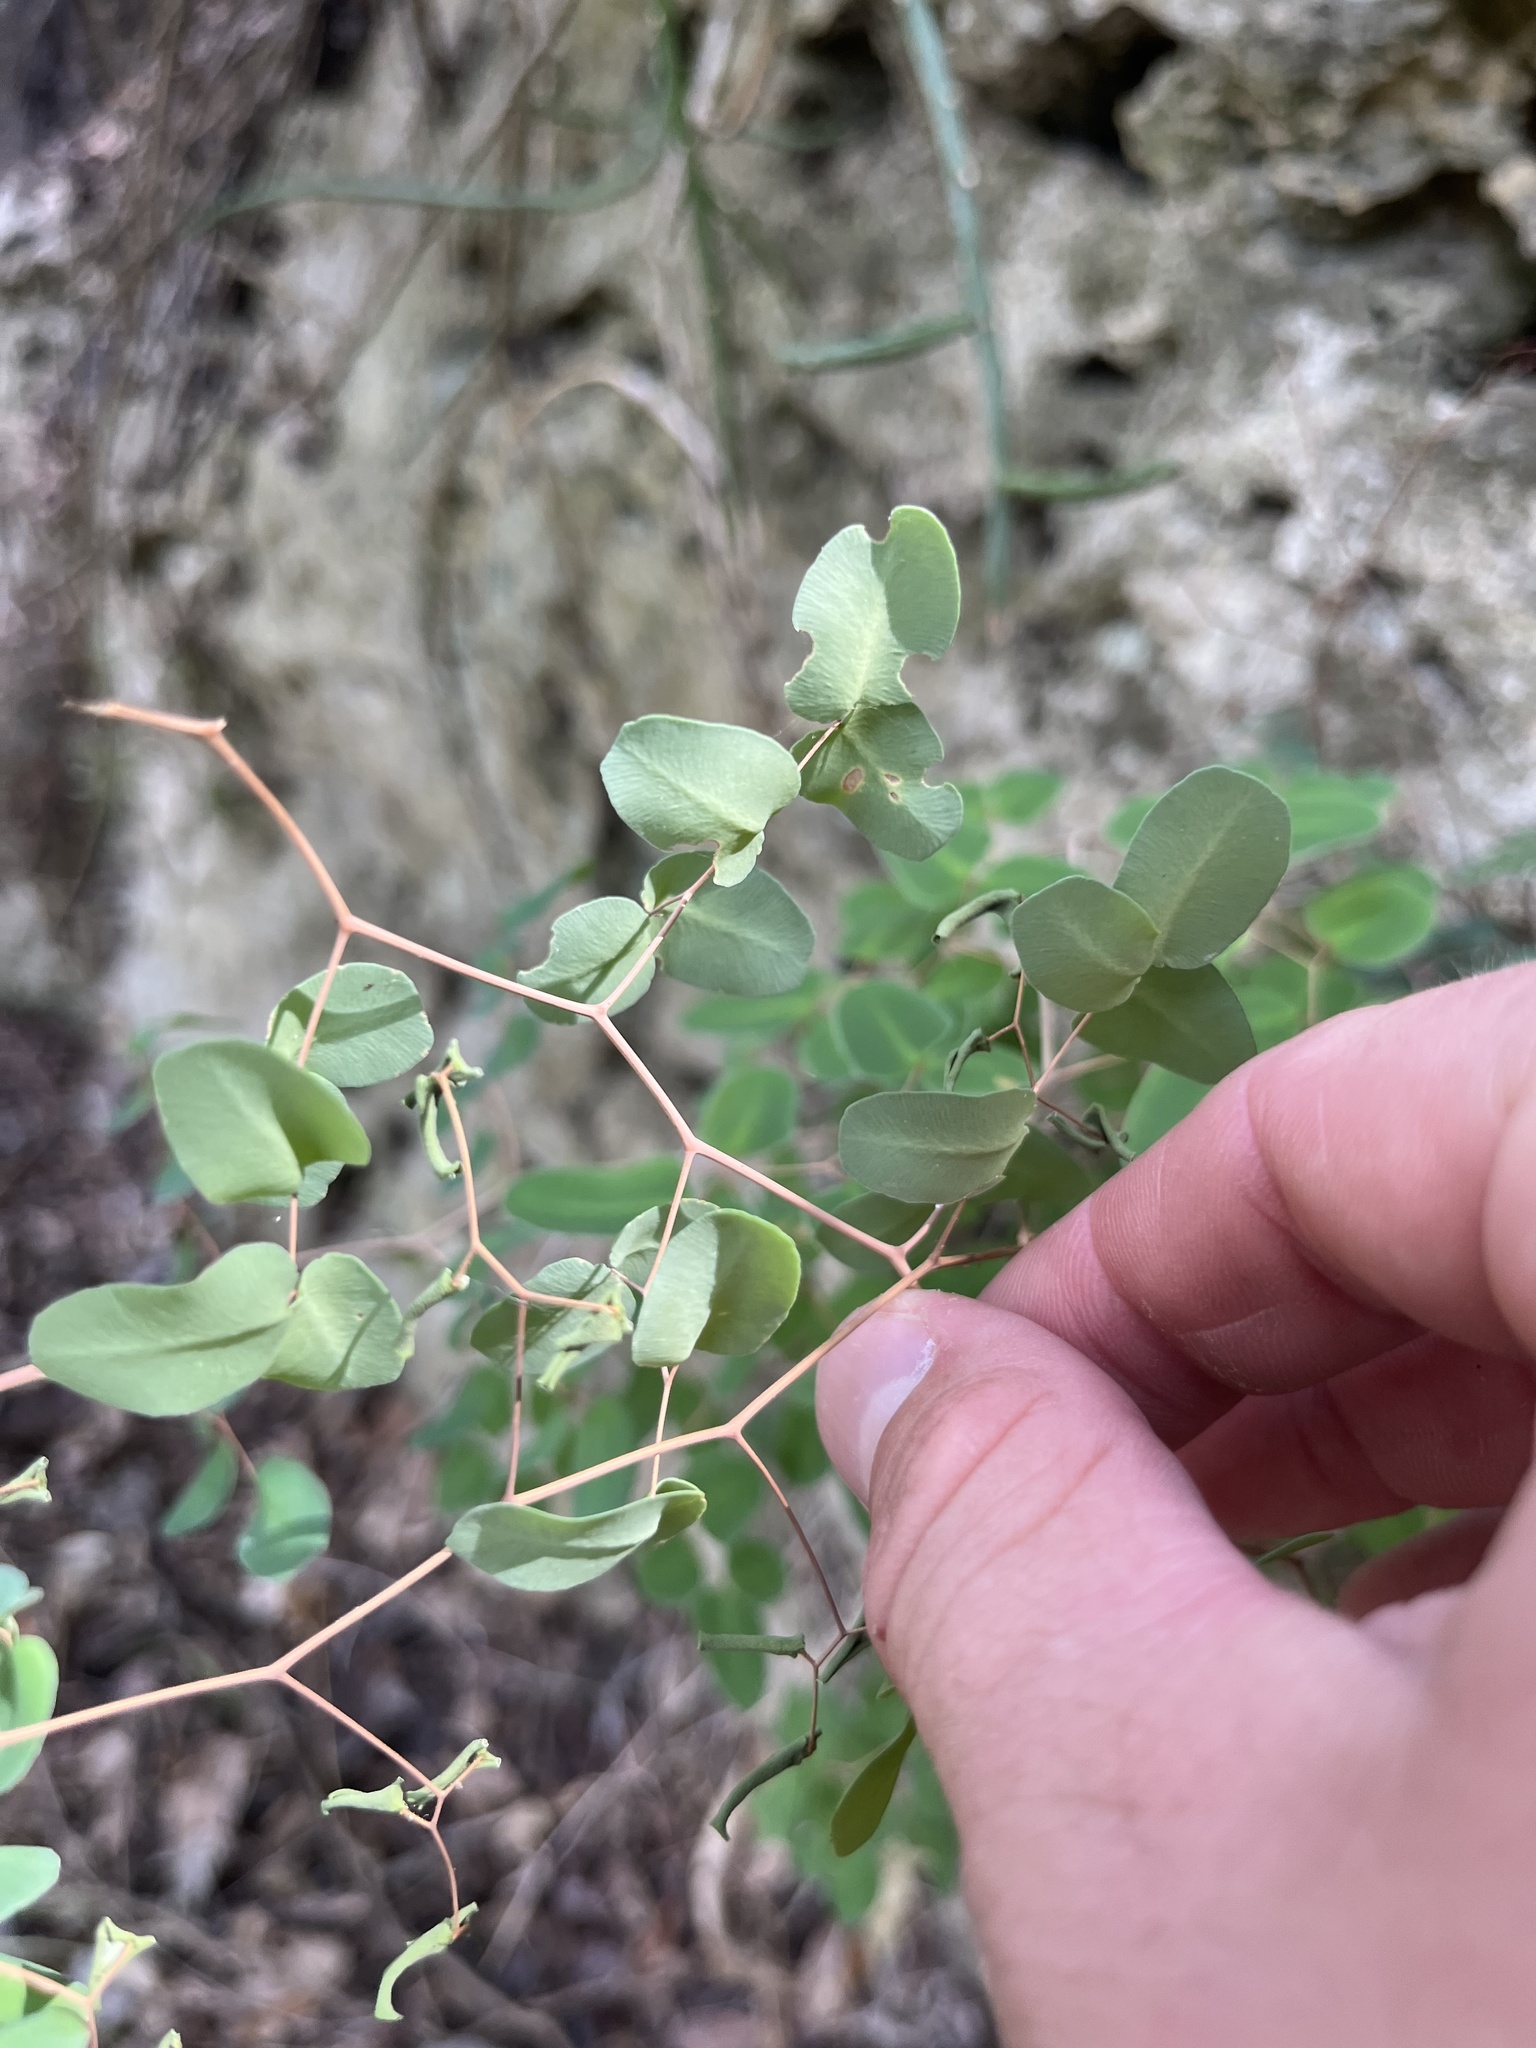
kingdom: Plantae
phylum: Tracheophyta
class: Polypodiopsida
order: Polypodiales
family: Pteridaceae
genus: Pellaea
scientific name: Pellaea ovata
